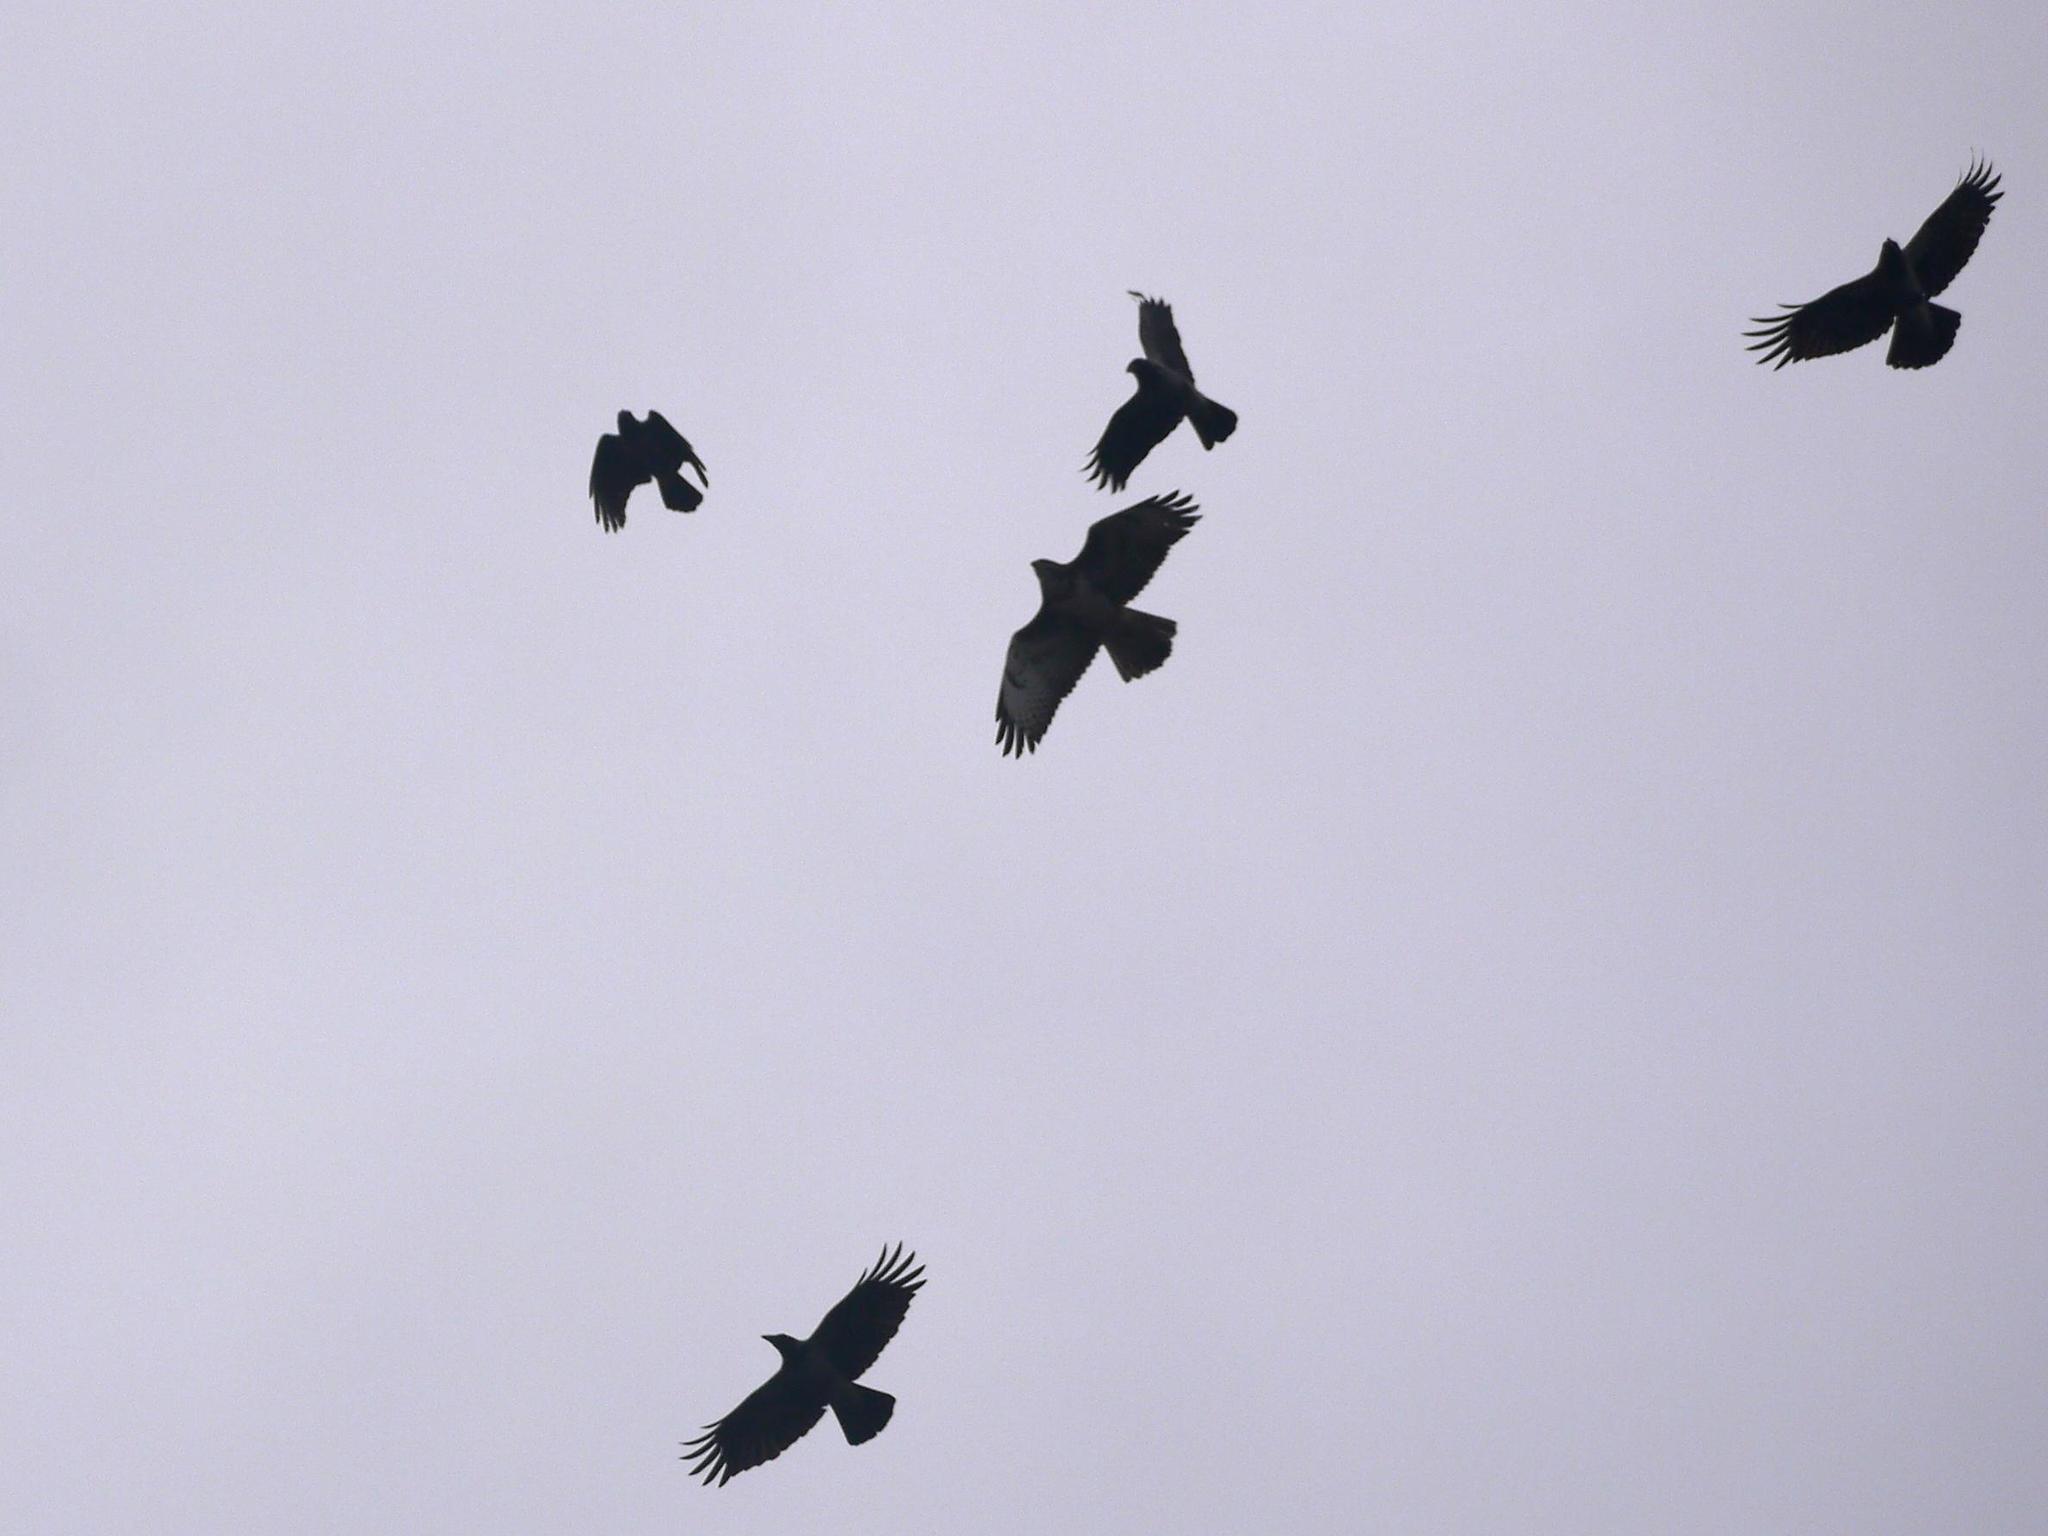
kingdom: Animalia
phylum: Chordata
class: Aves
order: Accipitriformes
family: Accipitridae
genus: Buteo
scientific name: Buteo buteo
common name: Common buzzard
